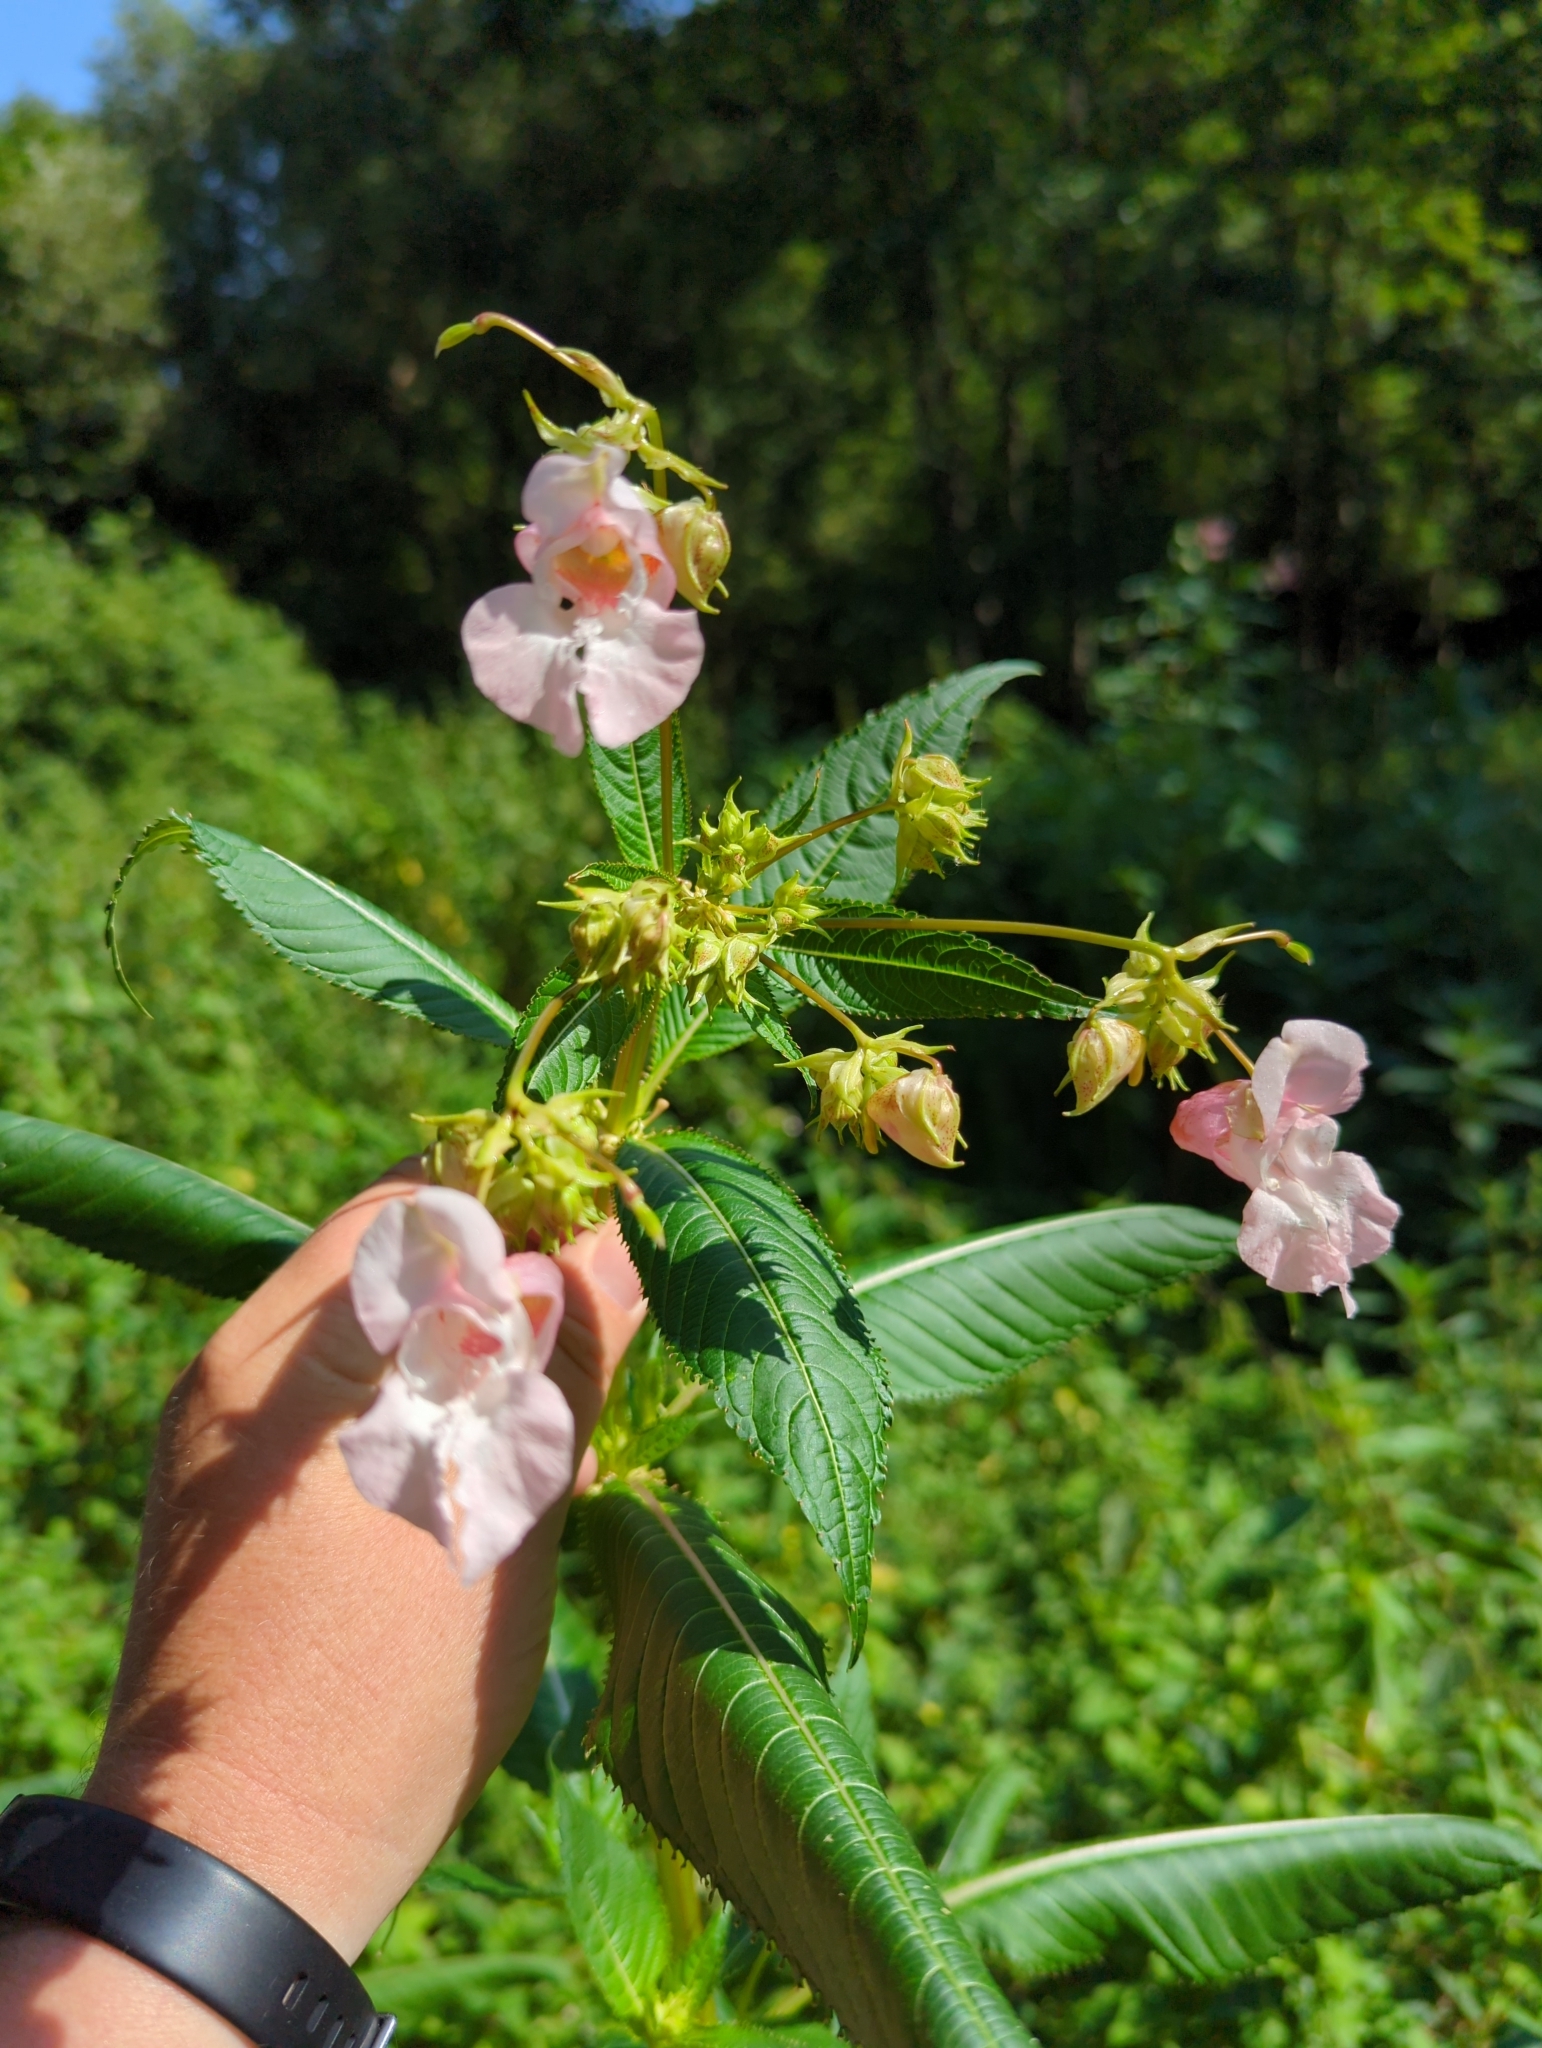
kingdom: Plantae
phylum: Tracheophyta
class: Magnoliopsida
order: Ericales
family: Balsaminaceae
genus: Impatiens
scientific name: Impatiens glandulifera
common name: Himalayan balsam
